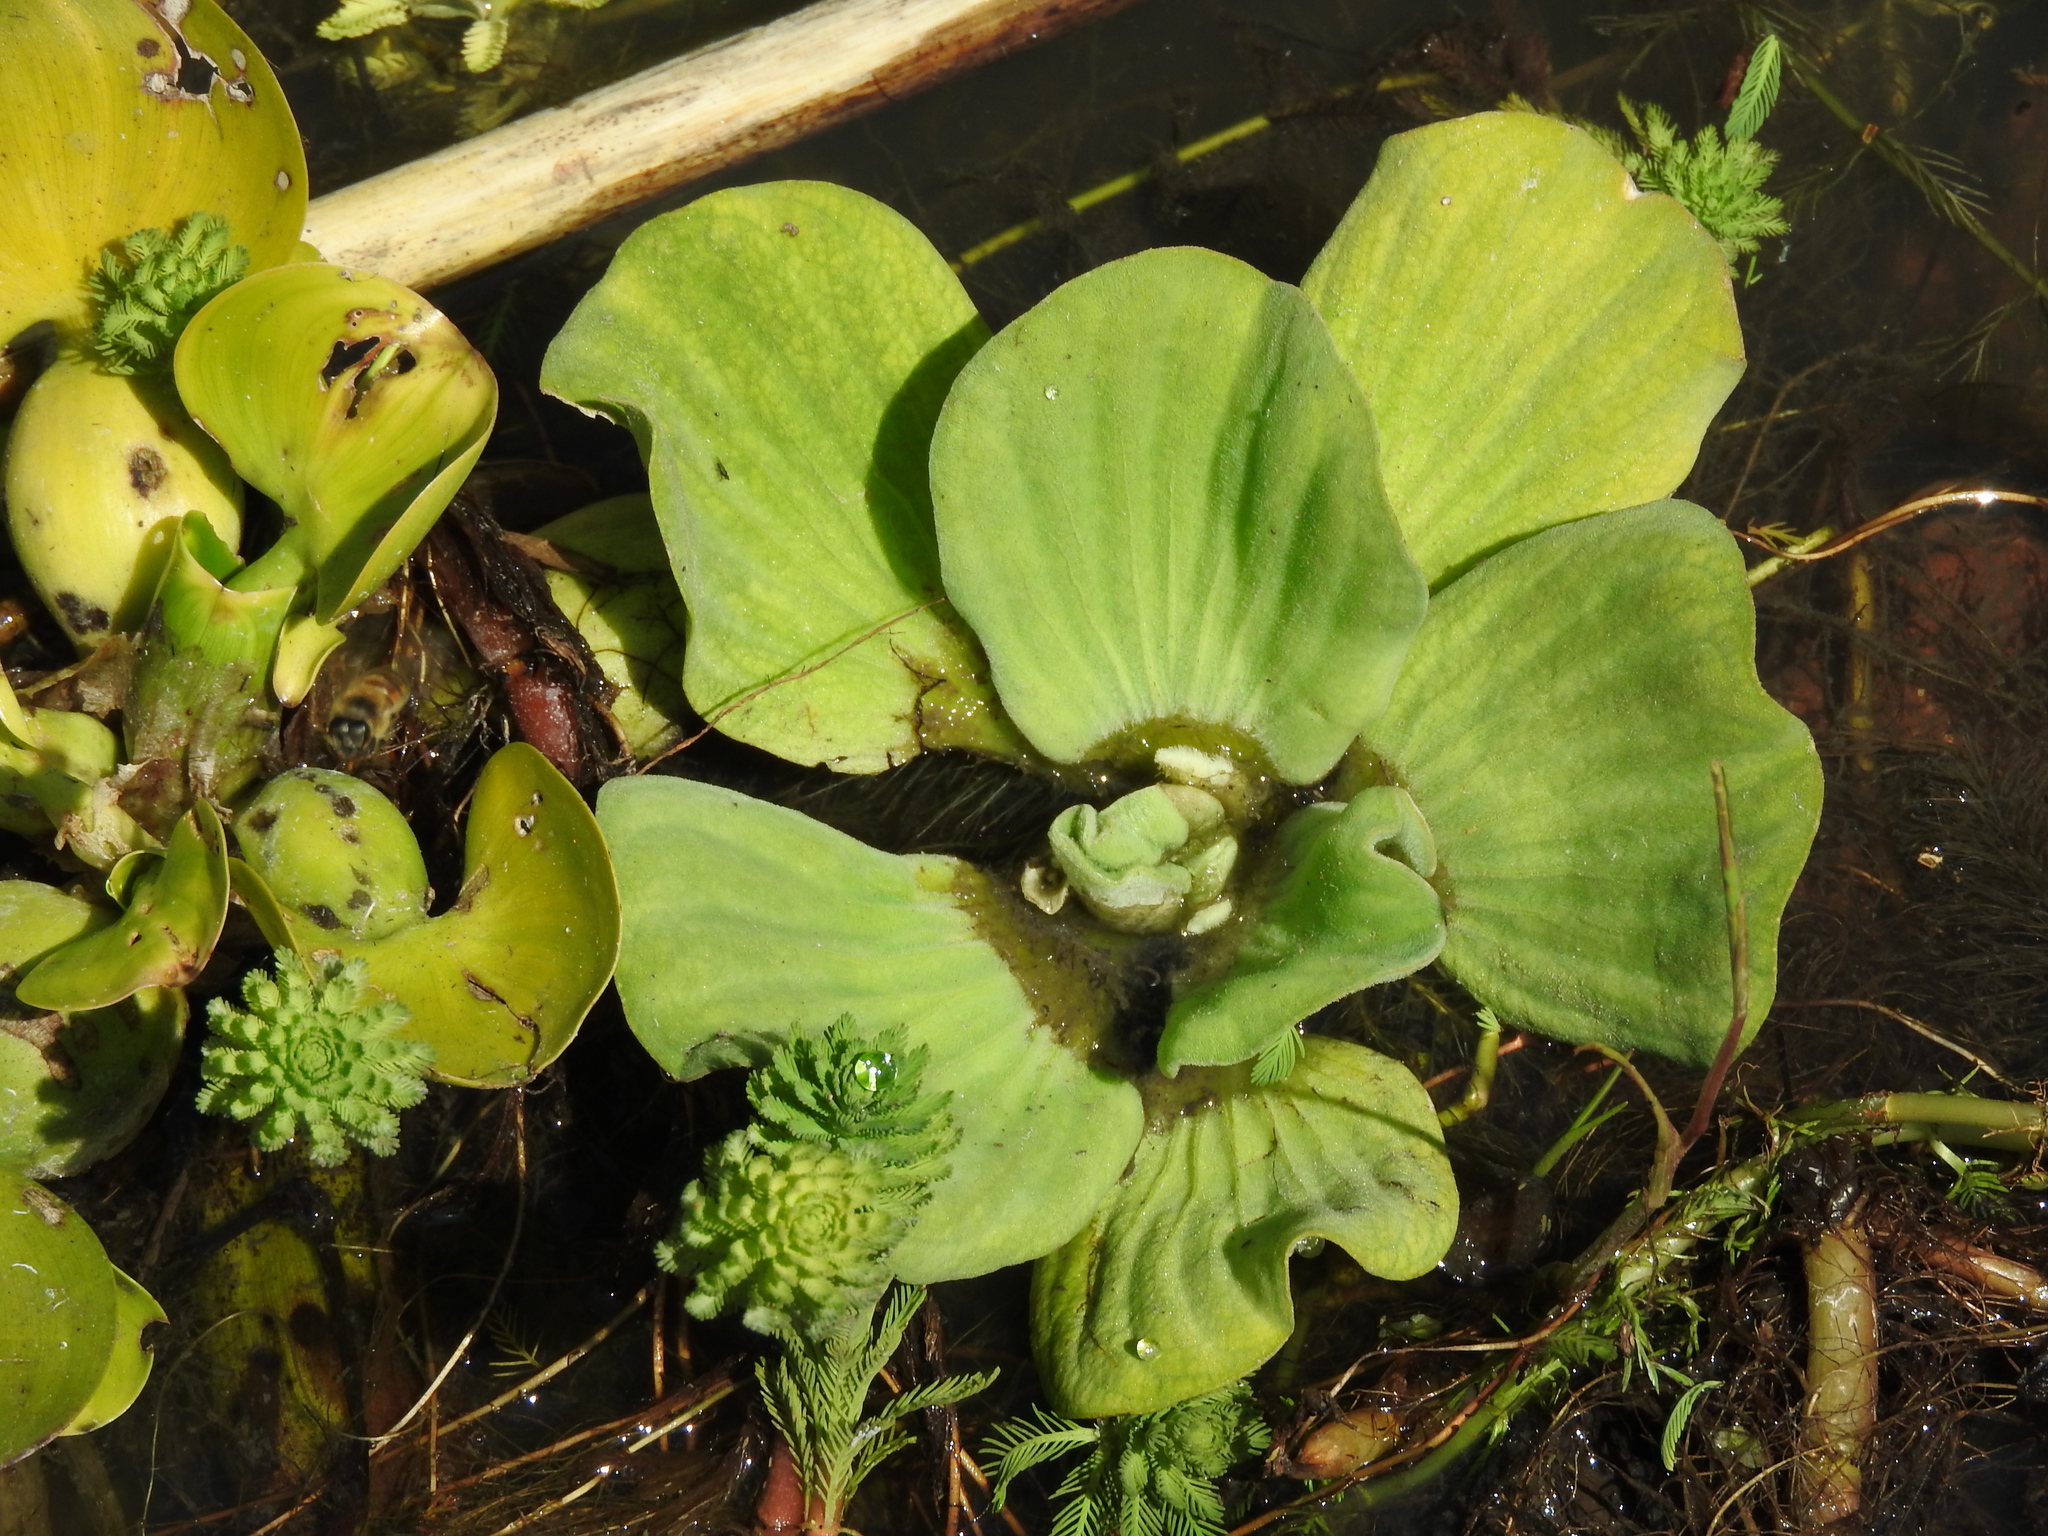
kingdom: Plantae
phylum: Tracheophyta
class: Liliopsida
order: Alismatales
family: Araceae
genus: Pistia
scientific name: Pistia stratiotes
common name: Water lettuce
